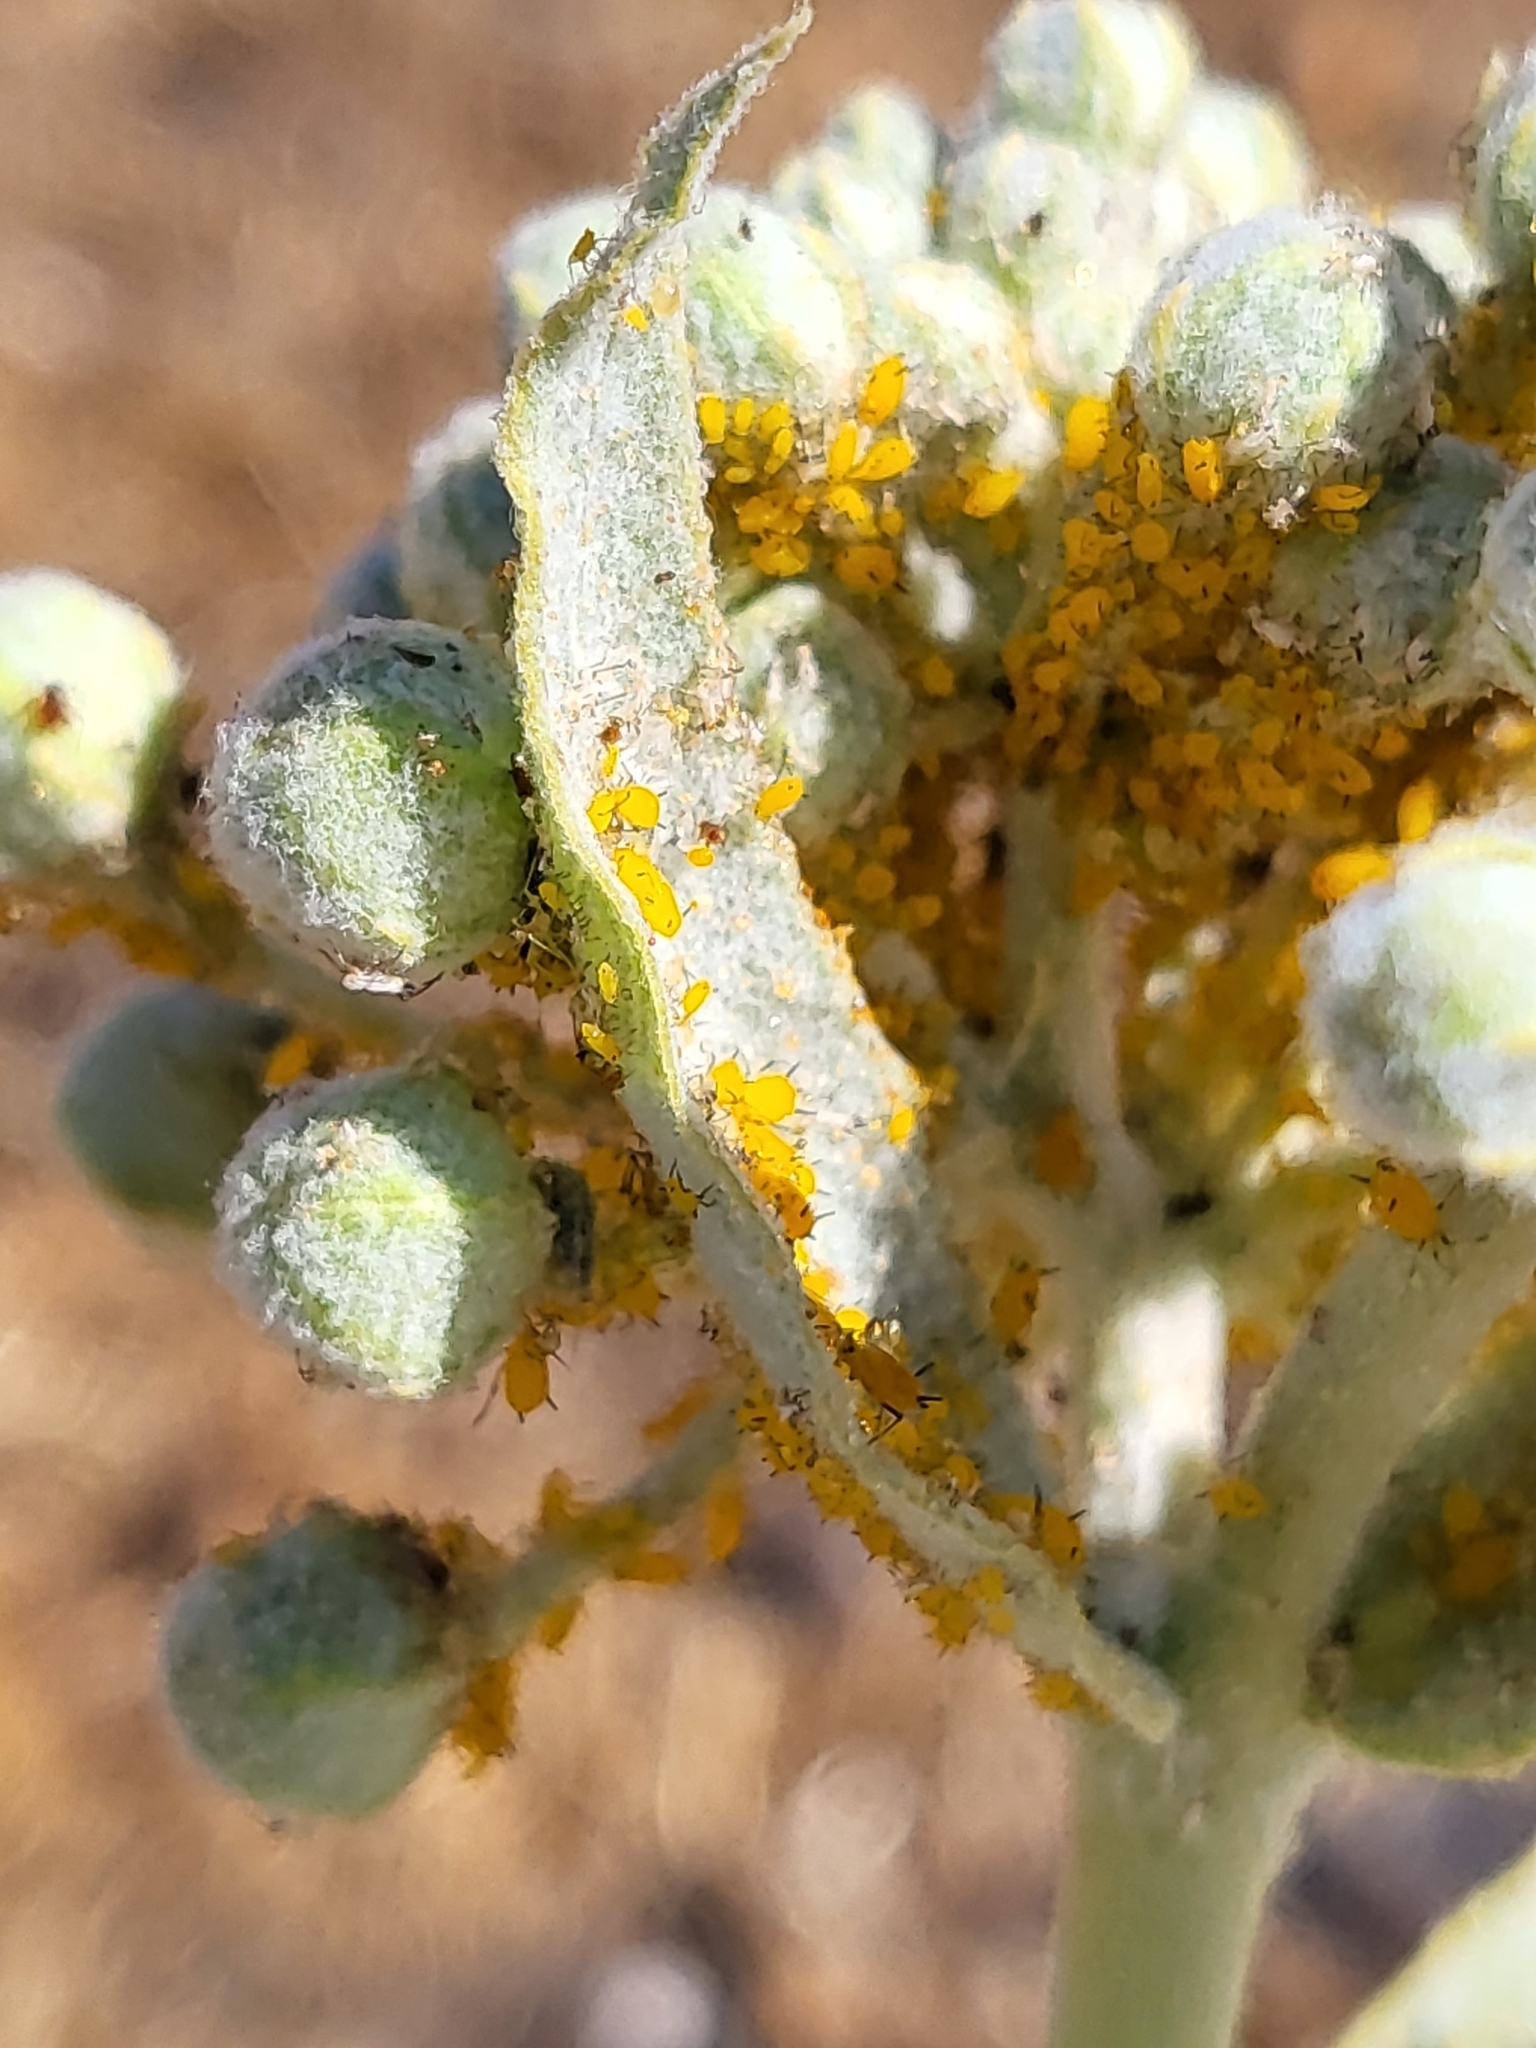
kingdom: Animalia
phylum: Arthropoda
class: Insecta
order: Hemiptera
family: Aphididae
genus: Aphis
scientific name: Aphis nerii
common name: Oleander aphid
